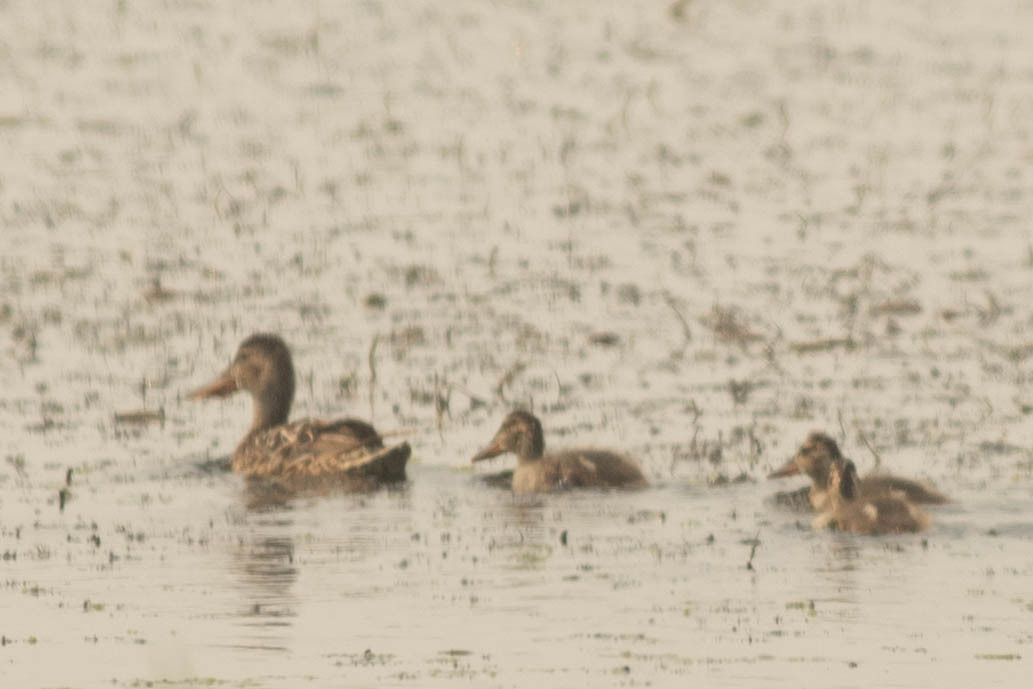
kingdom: Animalia
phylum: Chordata
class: Aves
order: Anseriformes
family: Anatidae
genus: Spatula
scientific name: Spatula clypeata
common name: Northern shoveler
